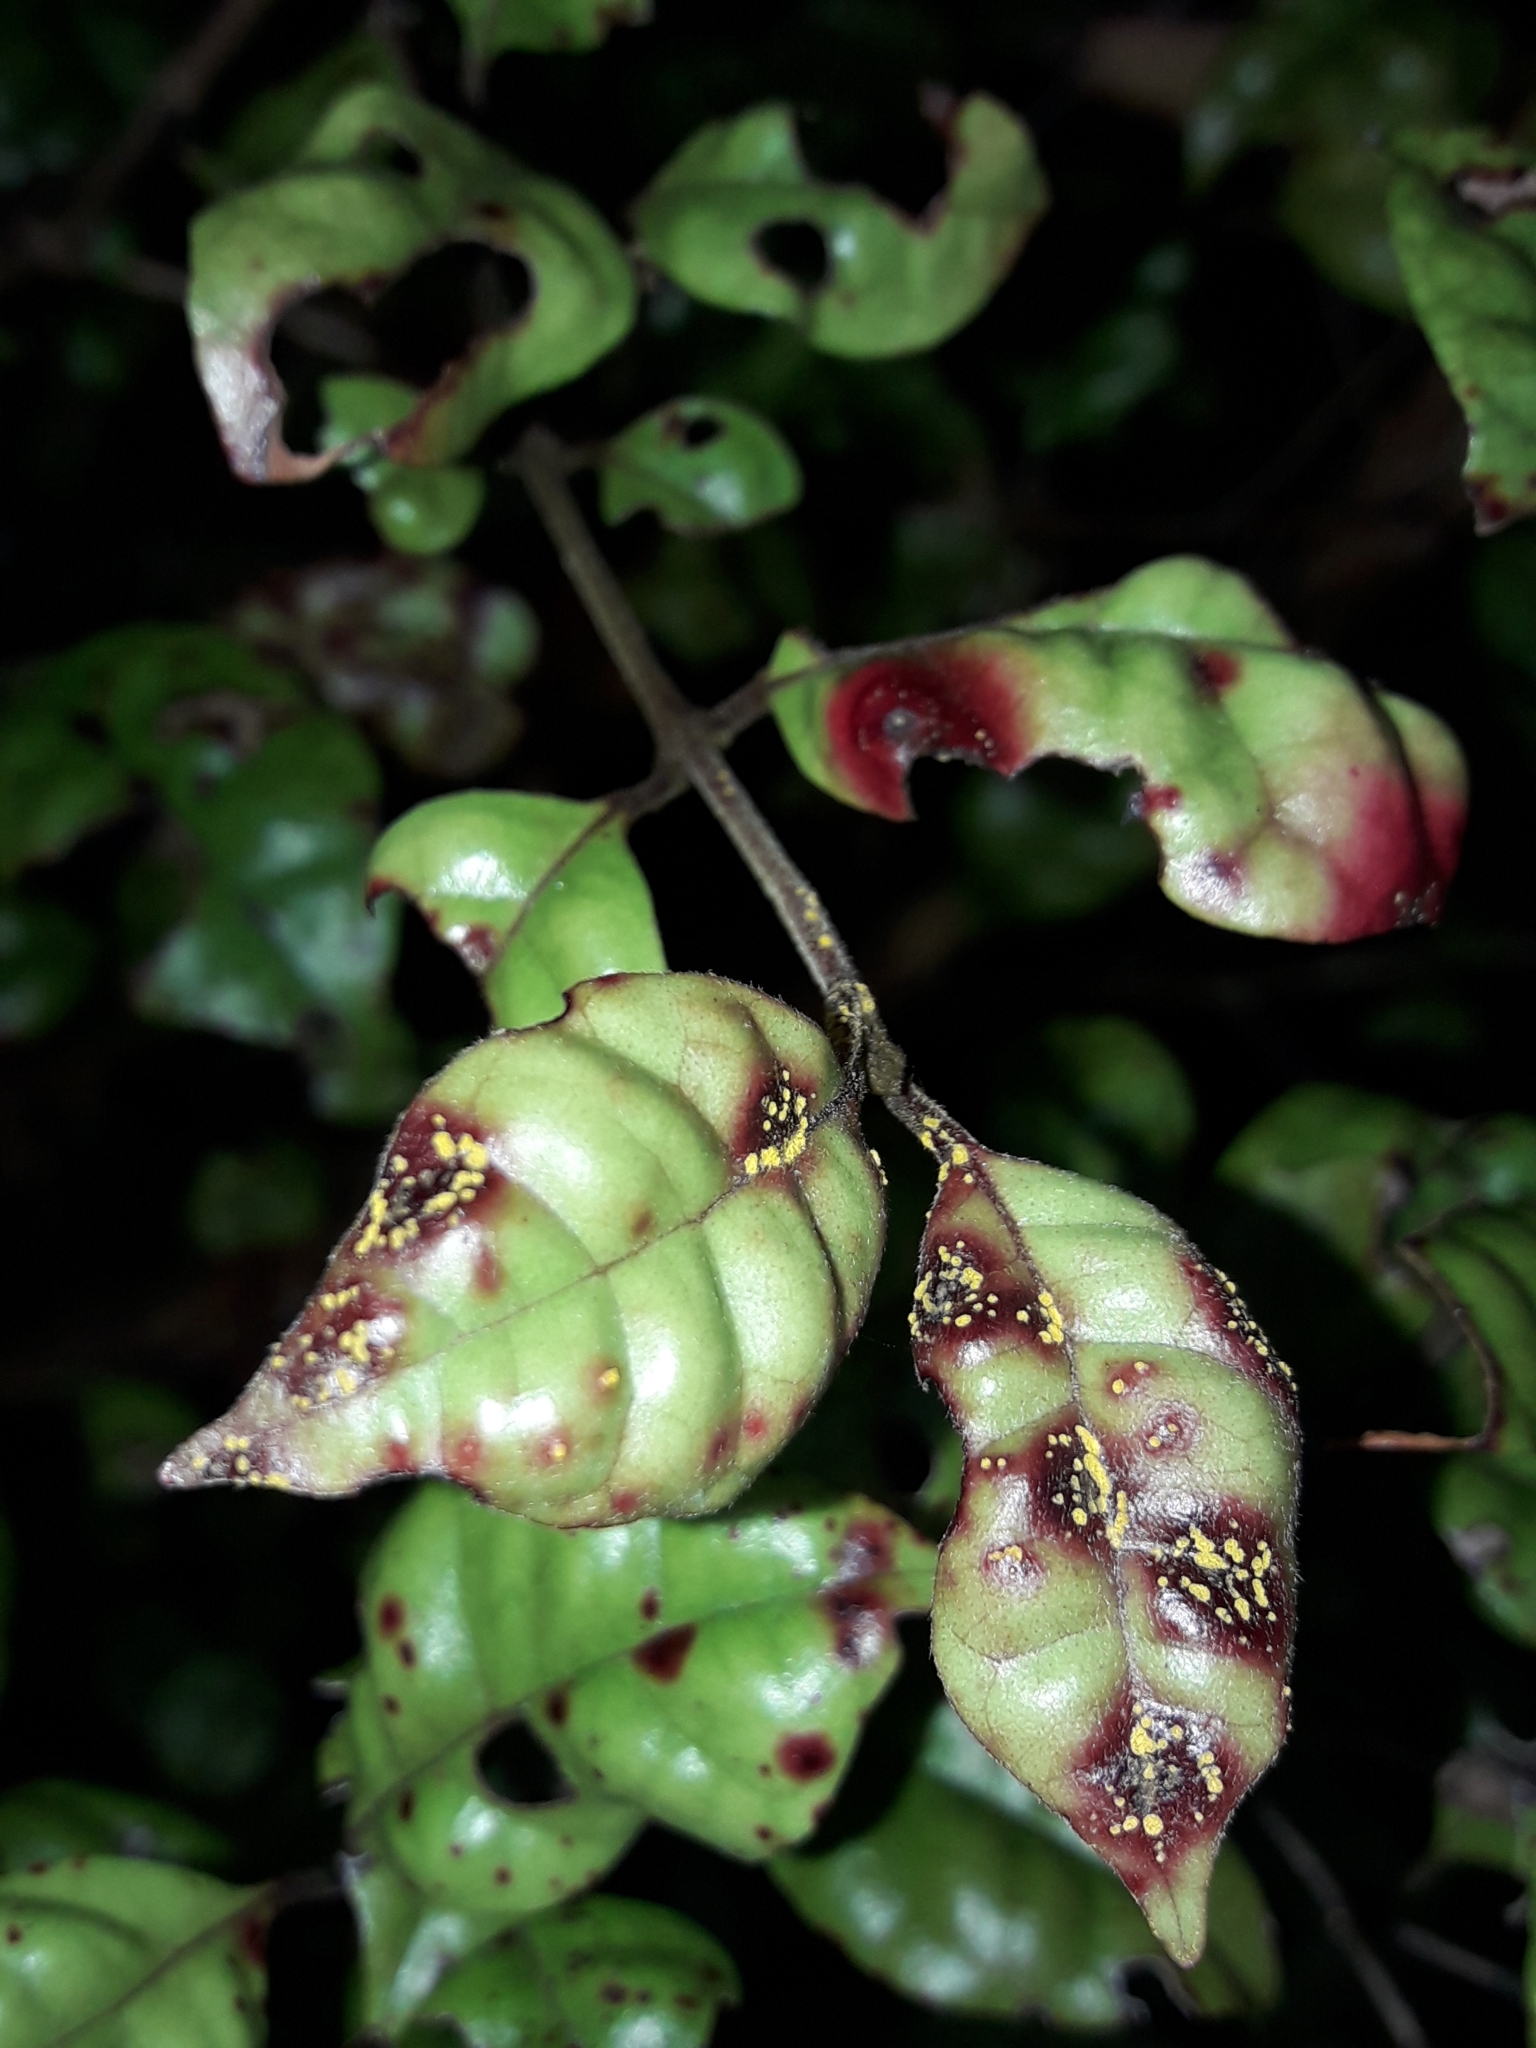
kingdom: Fungi
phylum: Basidiomycota
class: Pucciniomycetes
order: Pucciniales
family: Sphaerophragmiaceae
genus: Austropuccinia
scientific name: Austropuccinia psidii
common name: Myrtle rust
